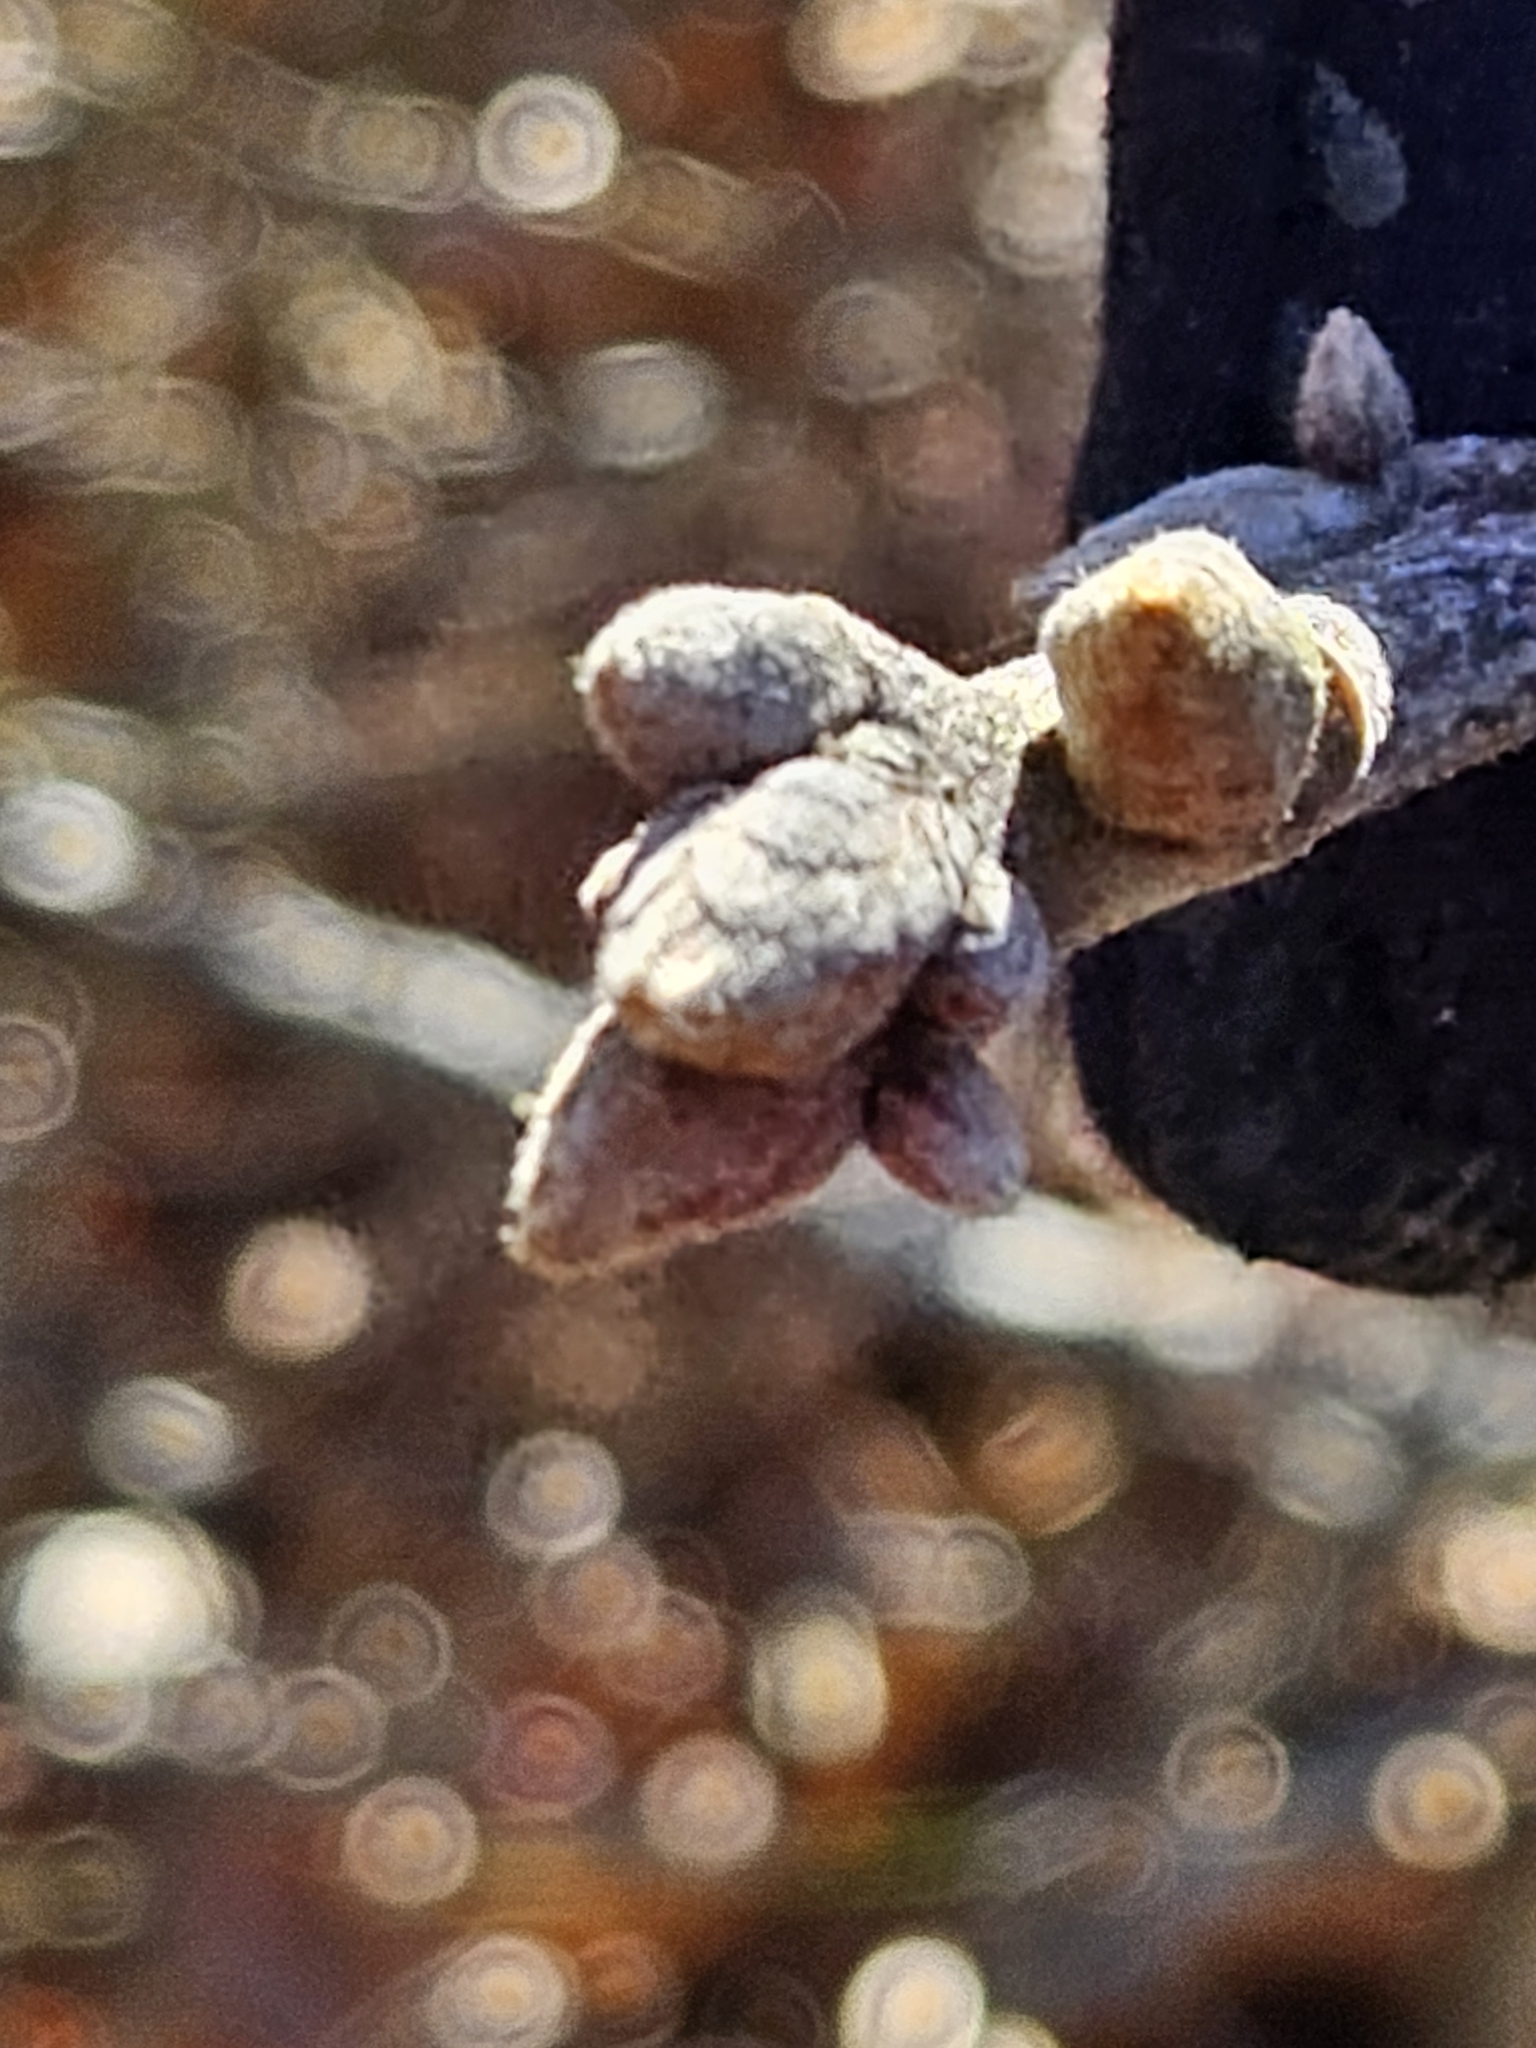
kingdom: Plantae
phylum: Tracheophyta
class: Magnoliopsida
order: Fagales
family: Fagaceae
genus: Quercus
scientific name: Quercus velutina
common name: Black oak
